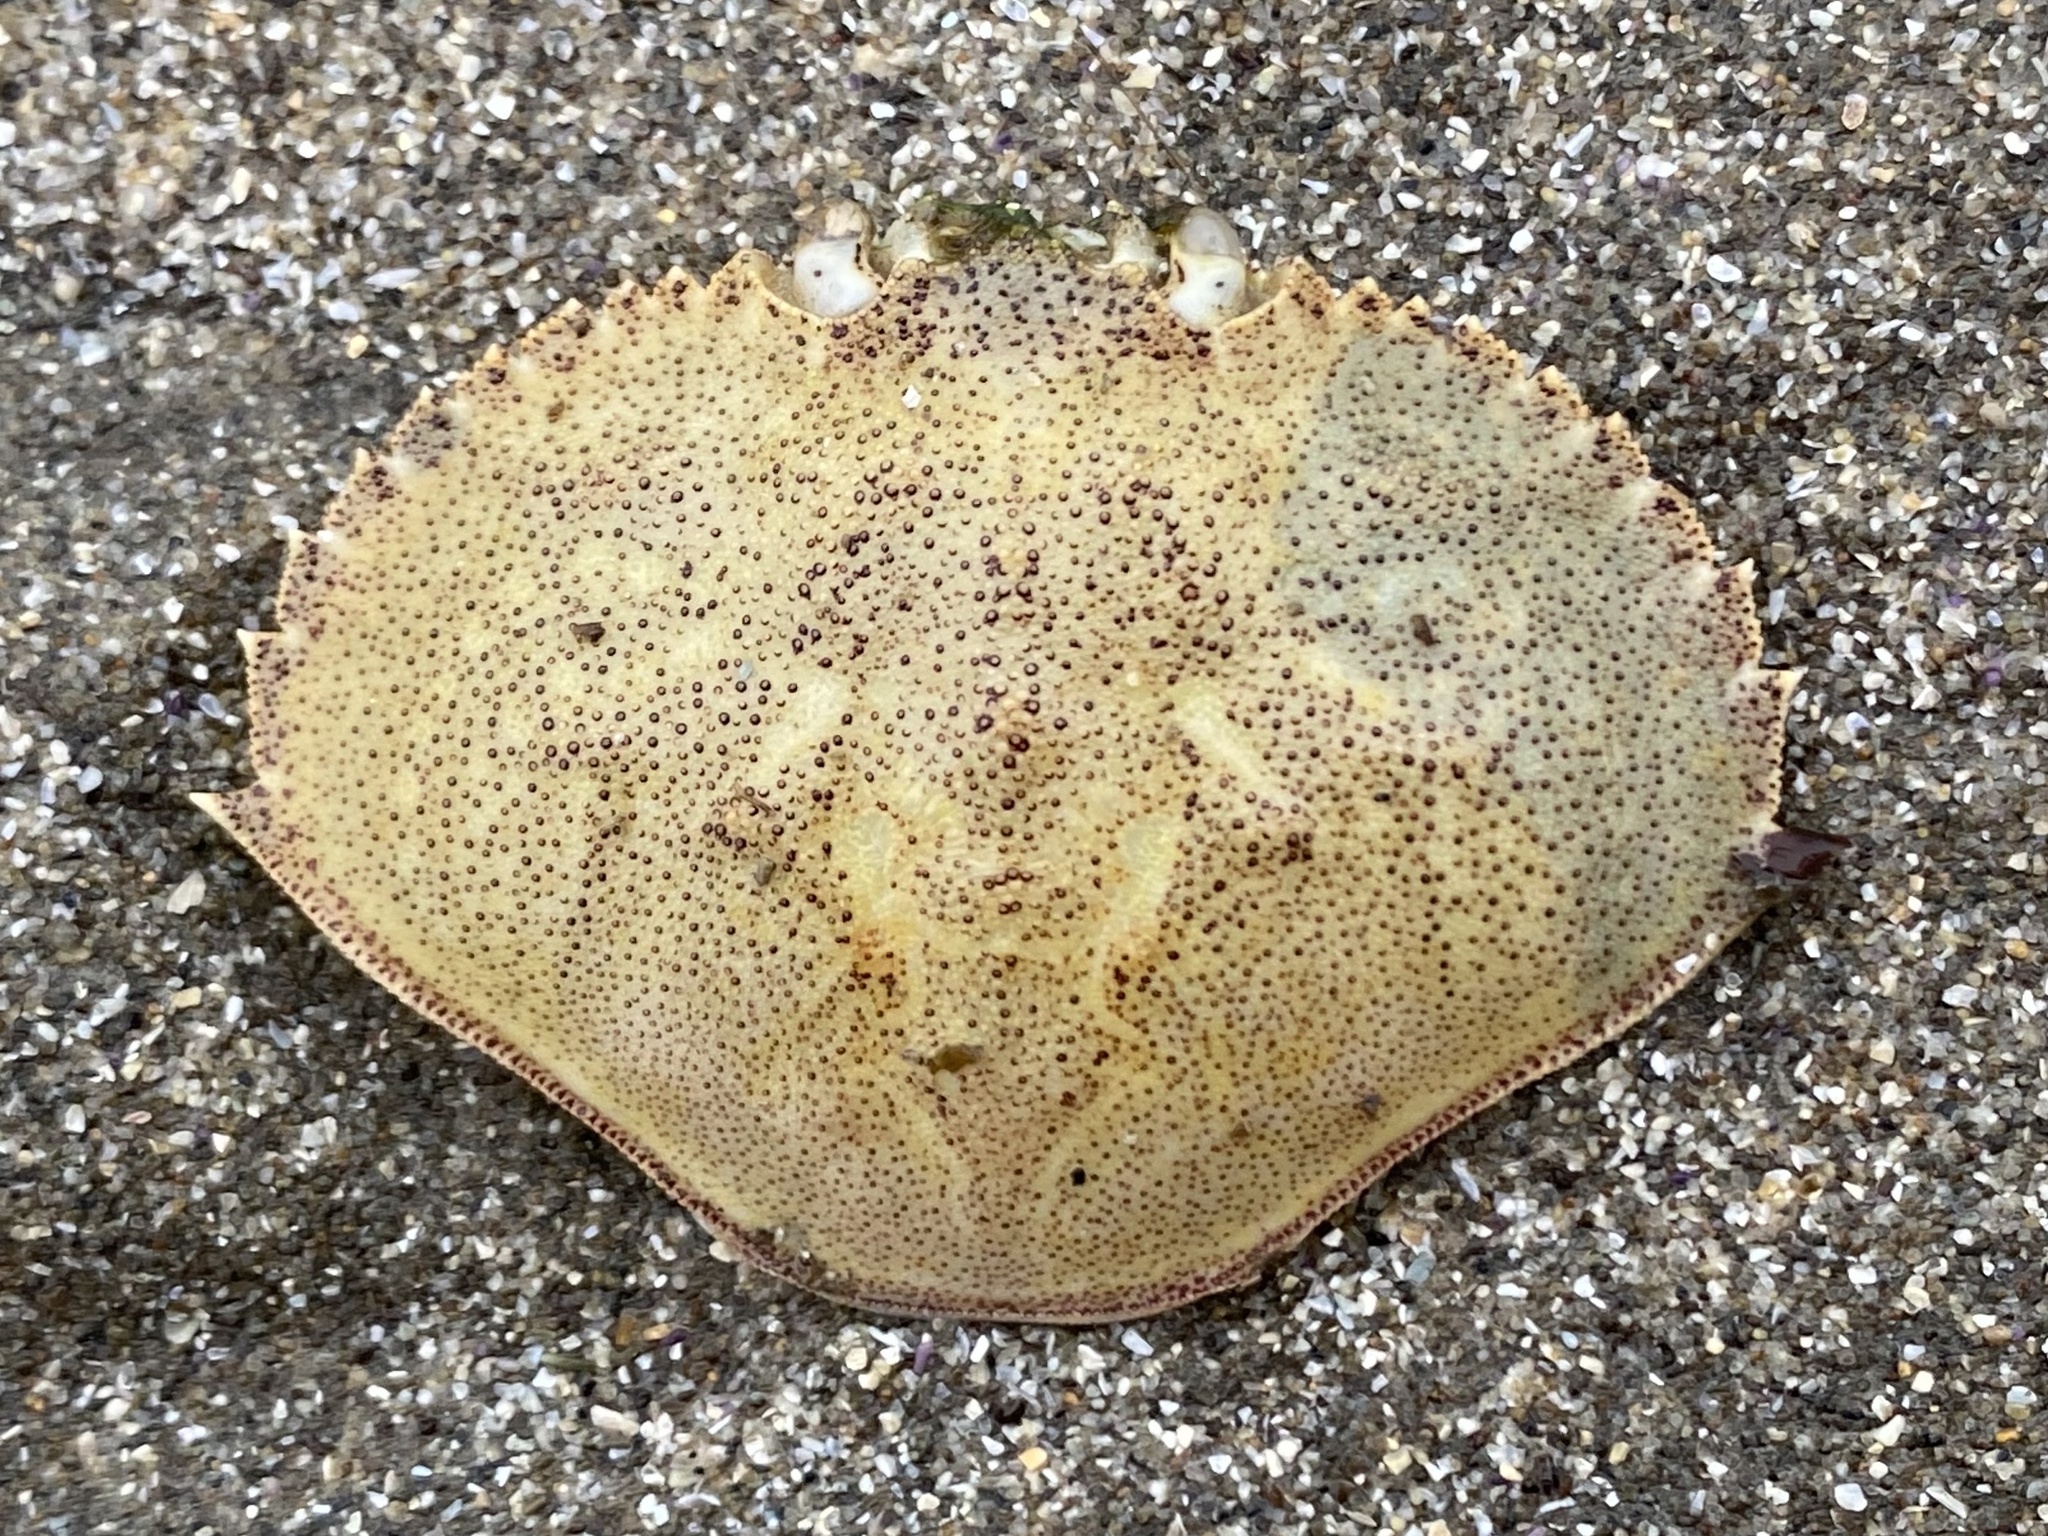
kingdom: Animalia
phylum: Arthropoda
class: Malacostraca
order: Decapoda
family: Cancridae
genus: Metacarcinus
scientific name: Metacarcinus magister
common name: Californian crab
